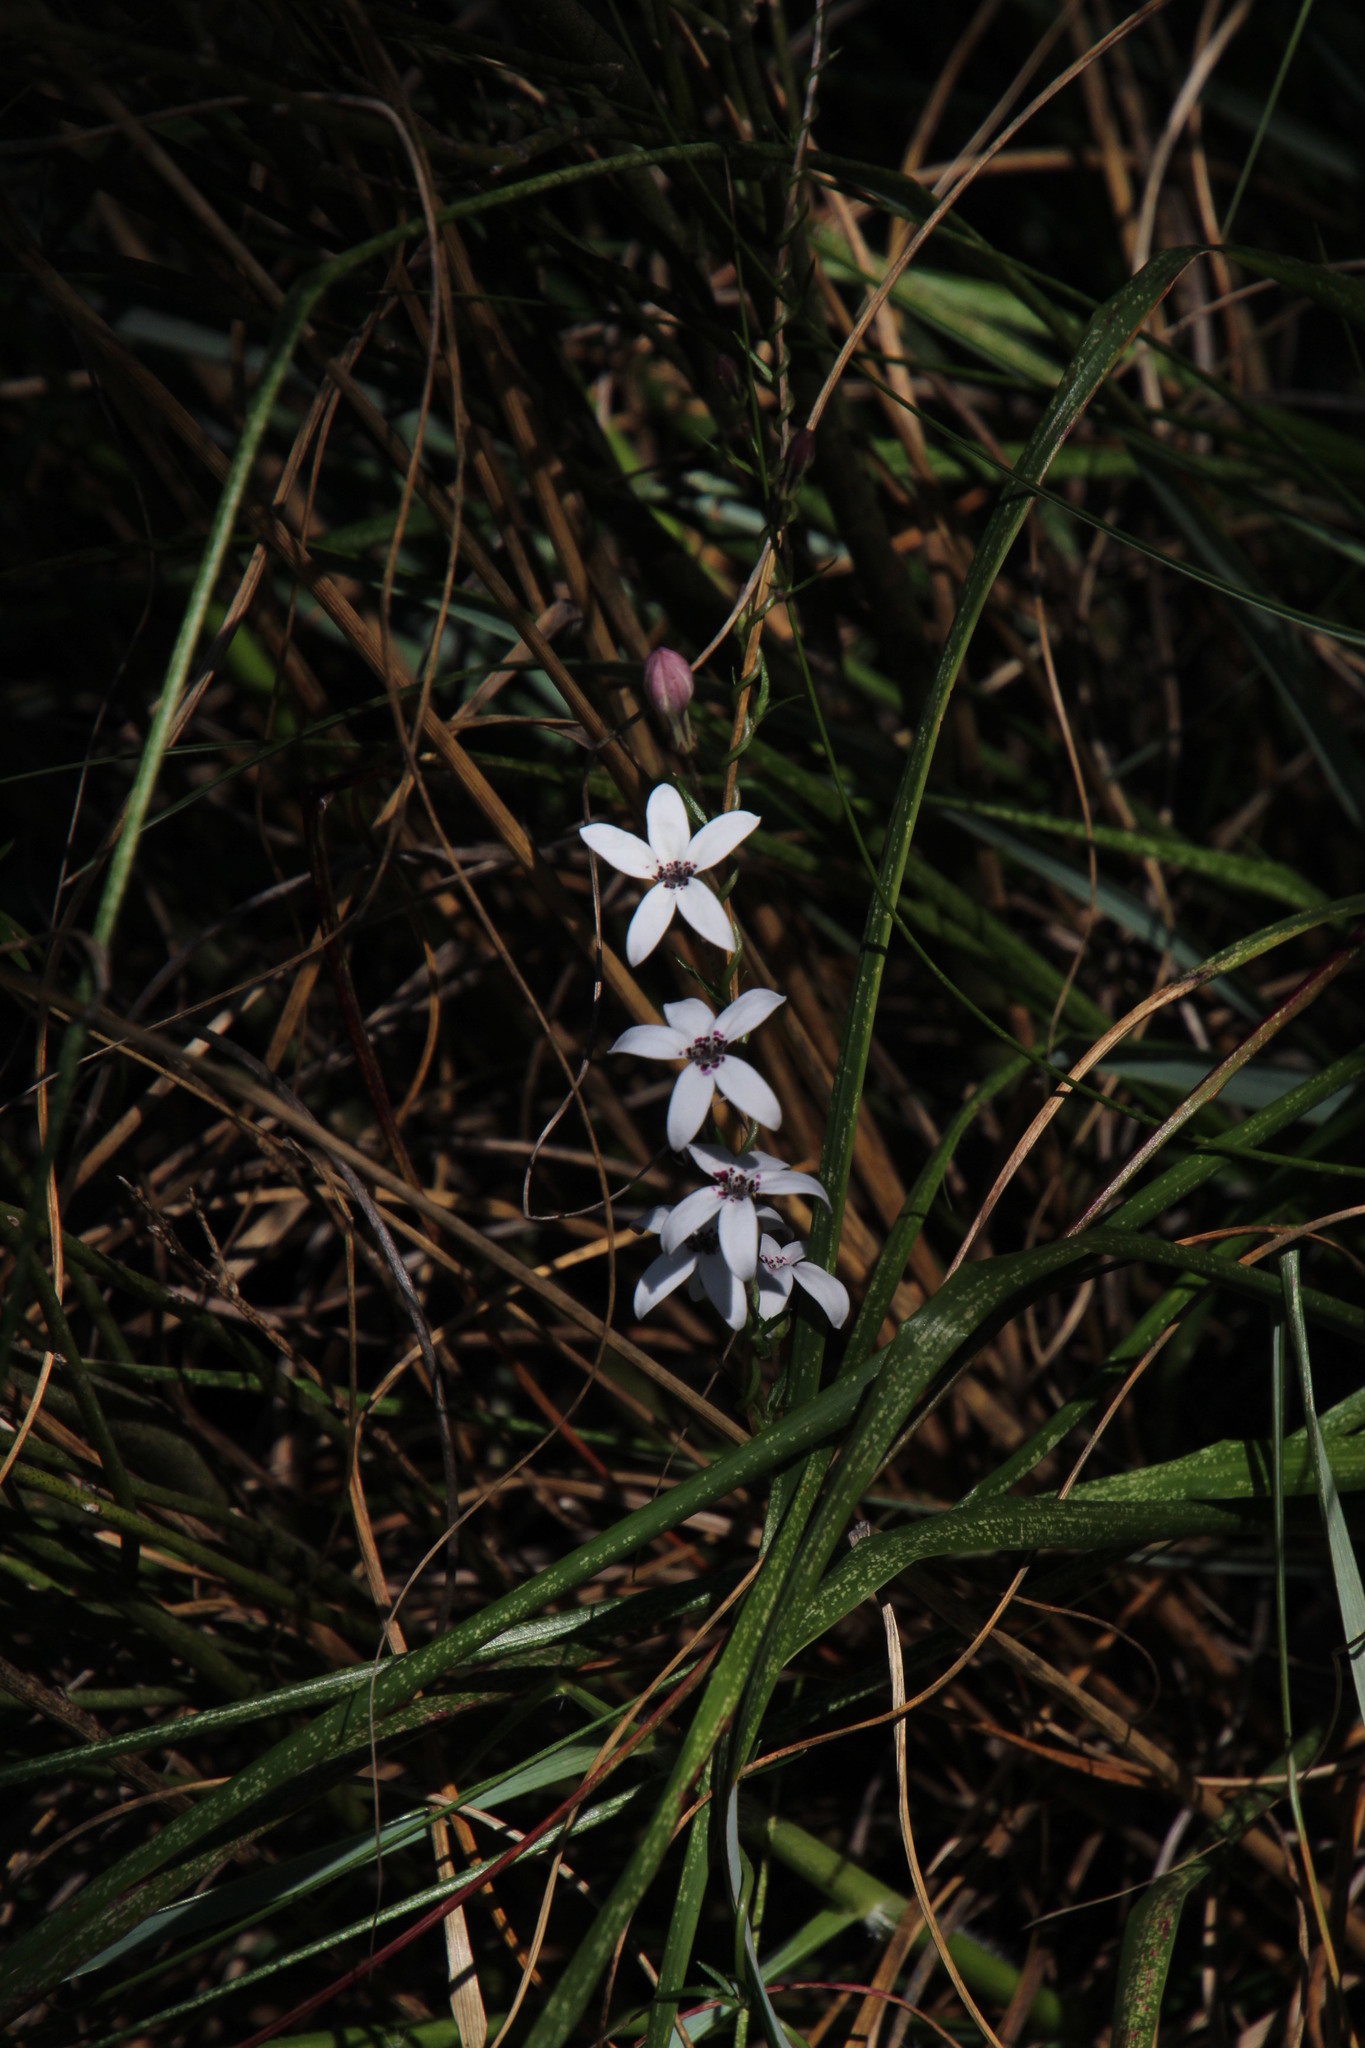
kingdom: Plantae
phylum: Tracheophyta
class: Magnoliopsida
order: Asterales
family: Campanulaceae
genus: Cyphia
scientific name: Cyphia volubilis
